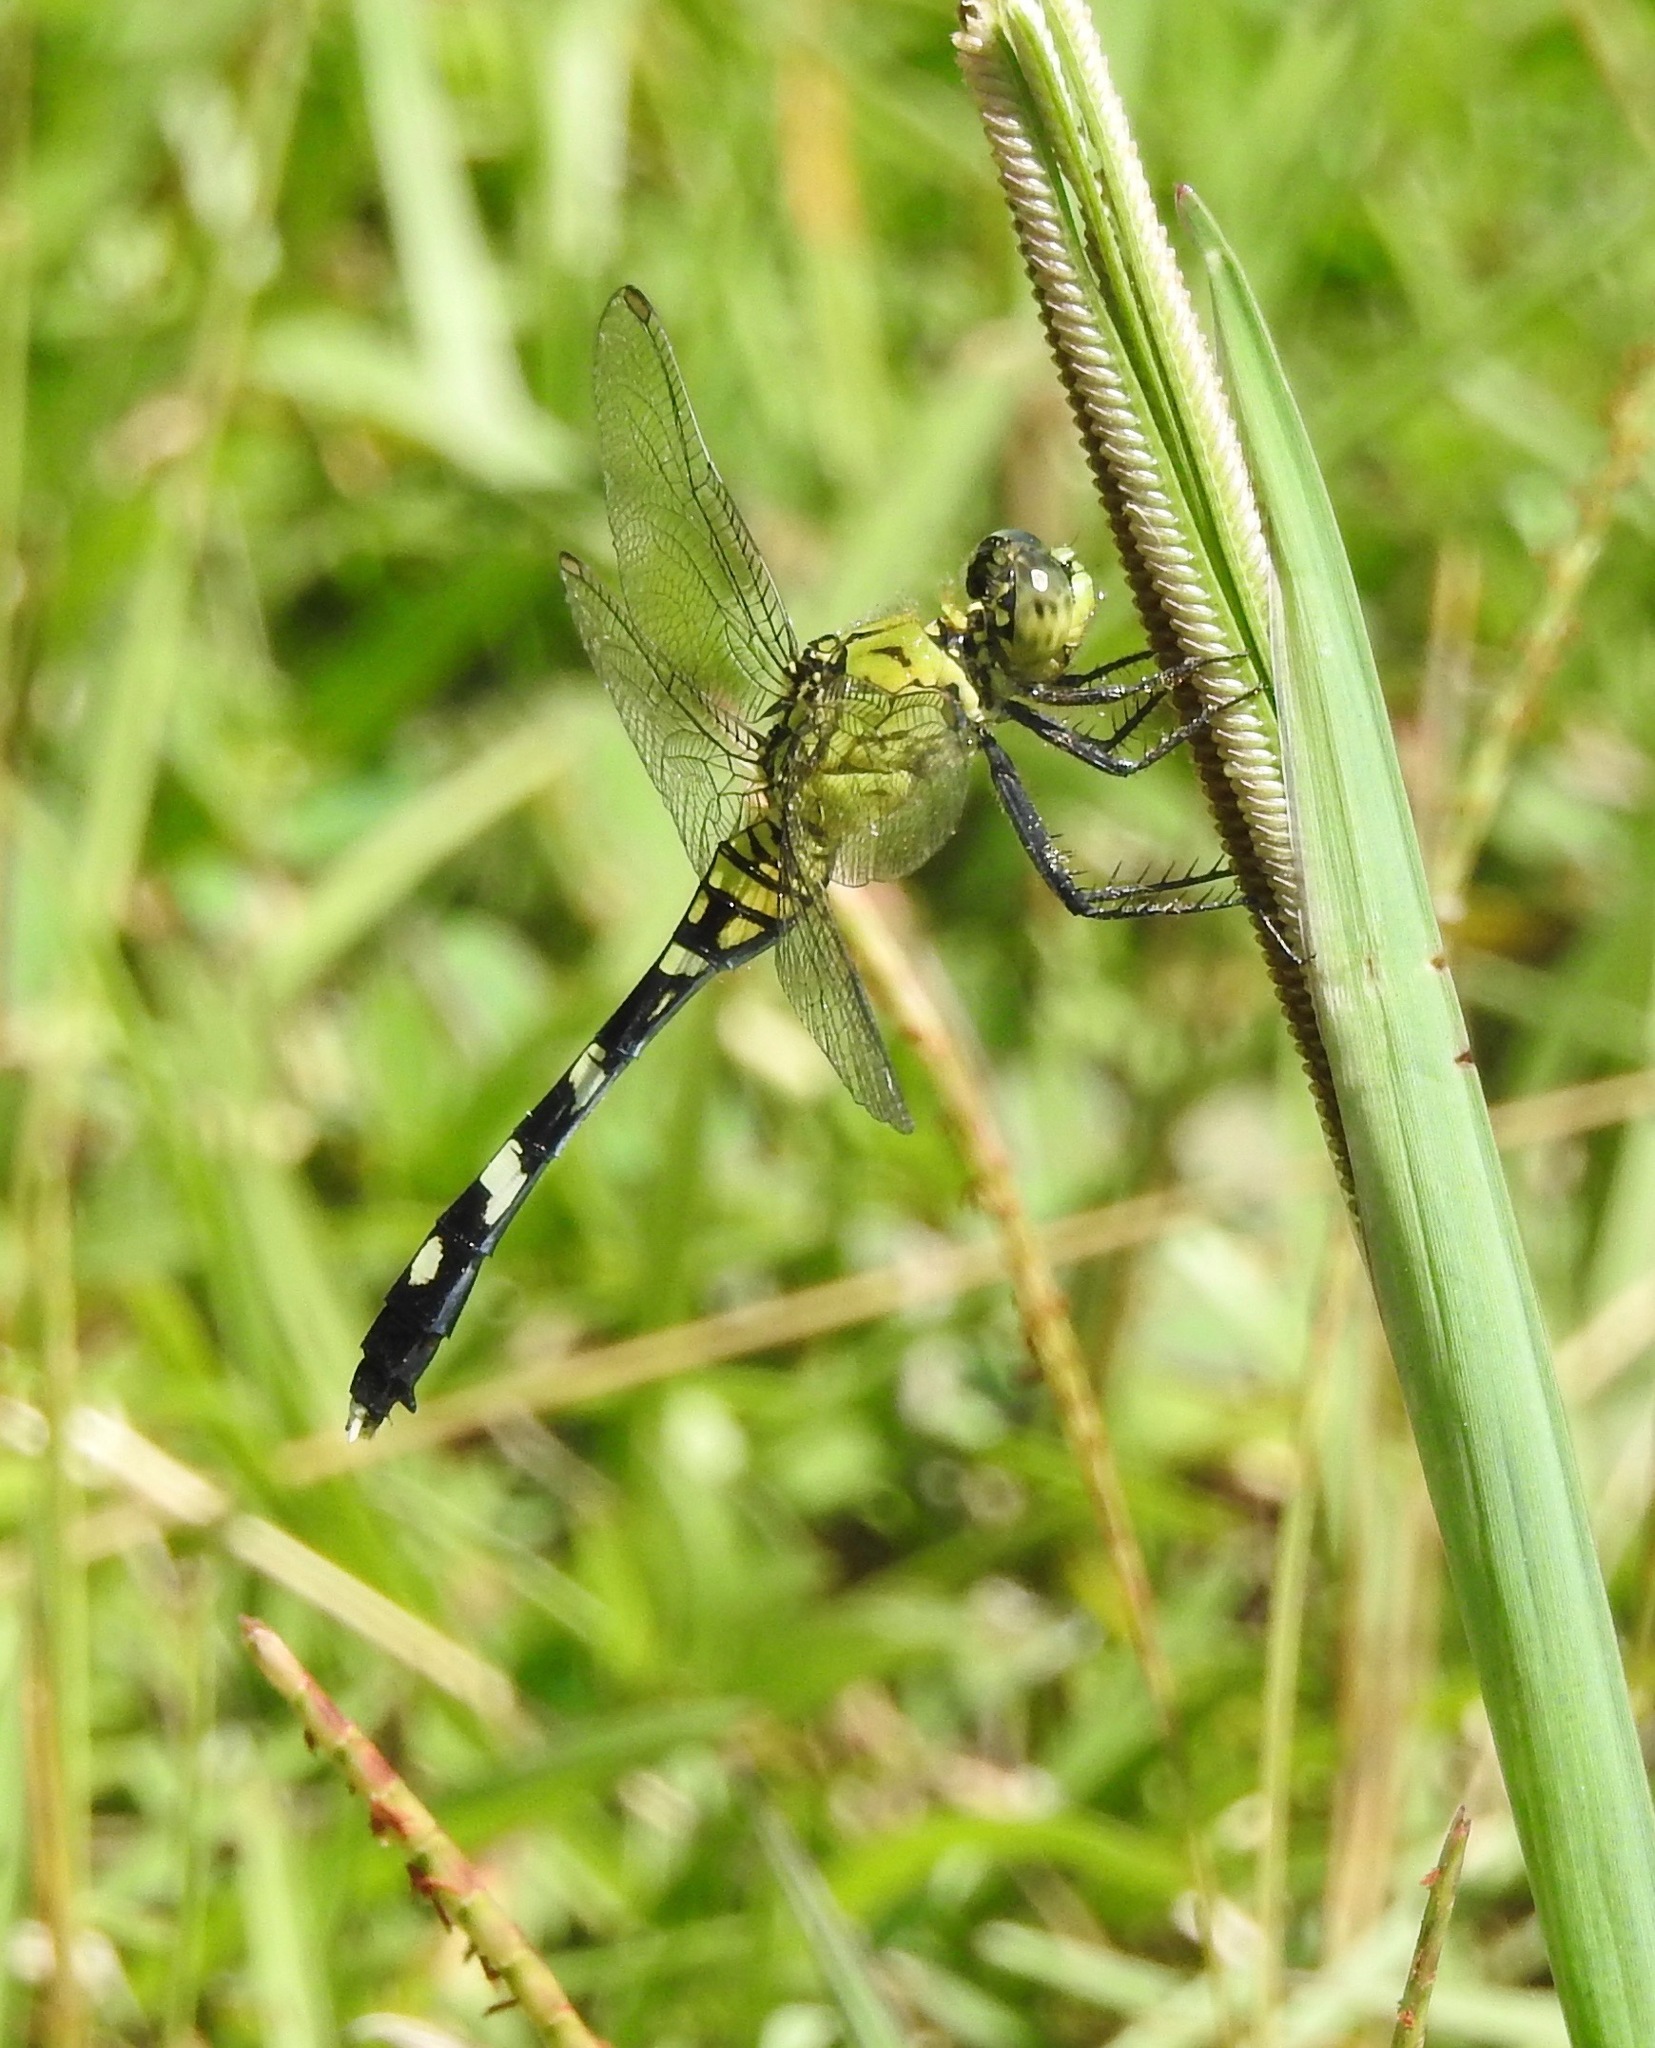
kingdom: Animalia
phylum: Arthropoda
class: Insecta
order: Odonata
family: Libellulidae
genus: Erythemis
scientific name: Erythemis simplicicollis
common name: Eastern pondhawk
